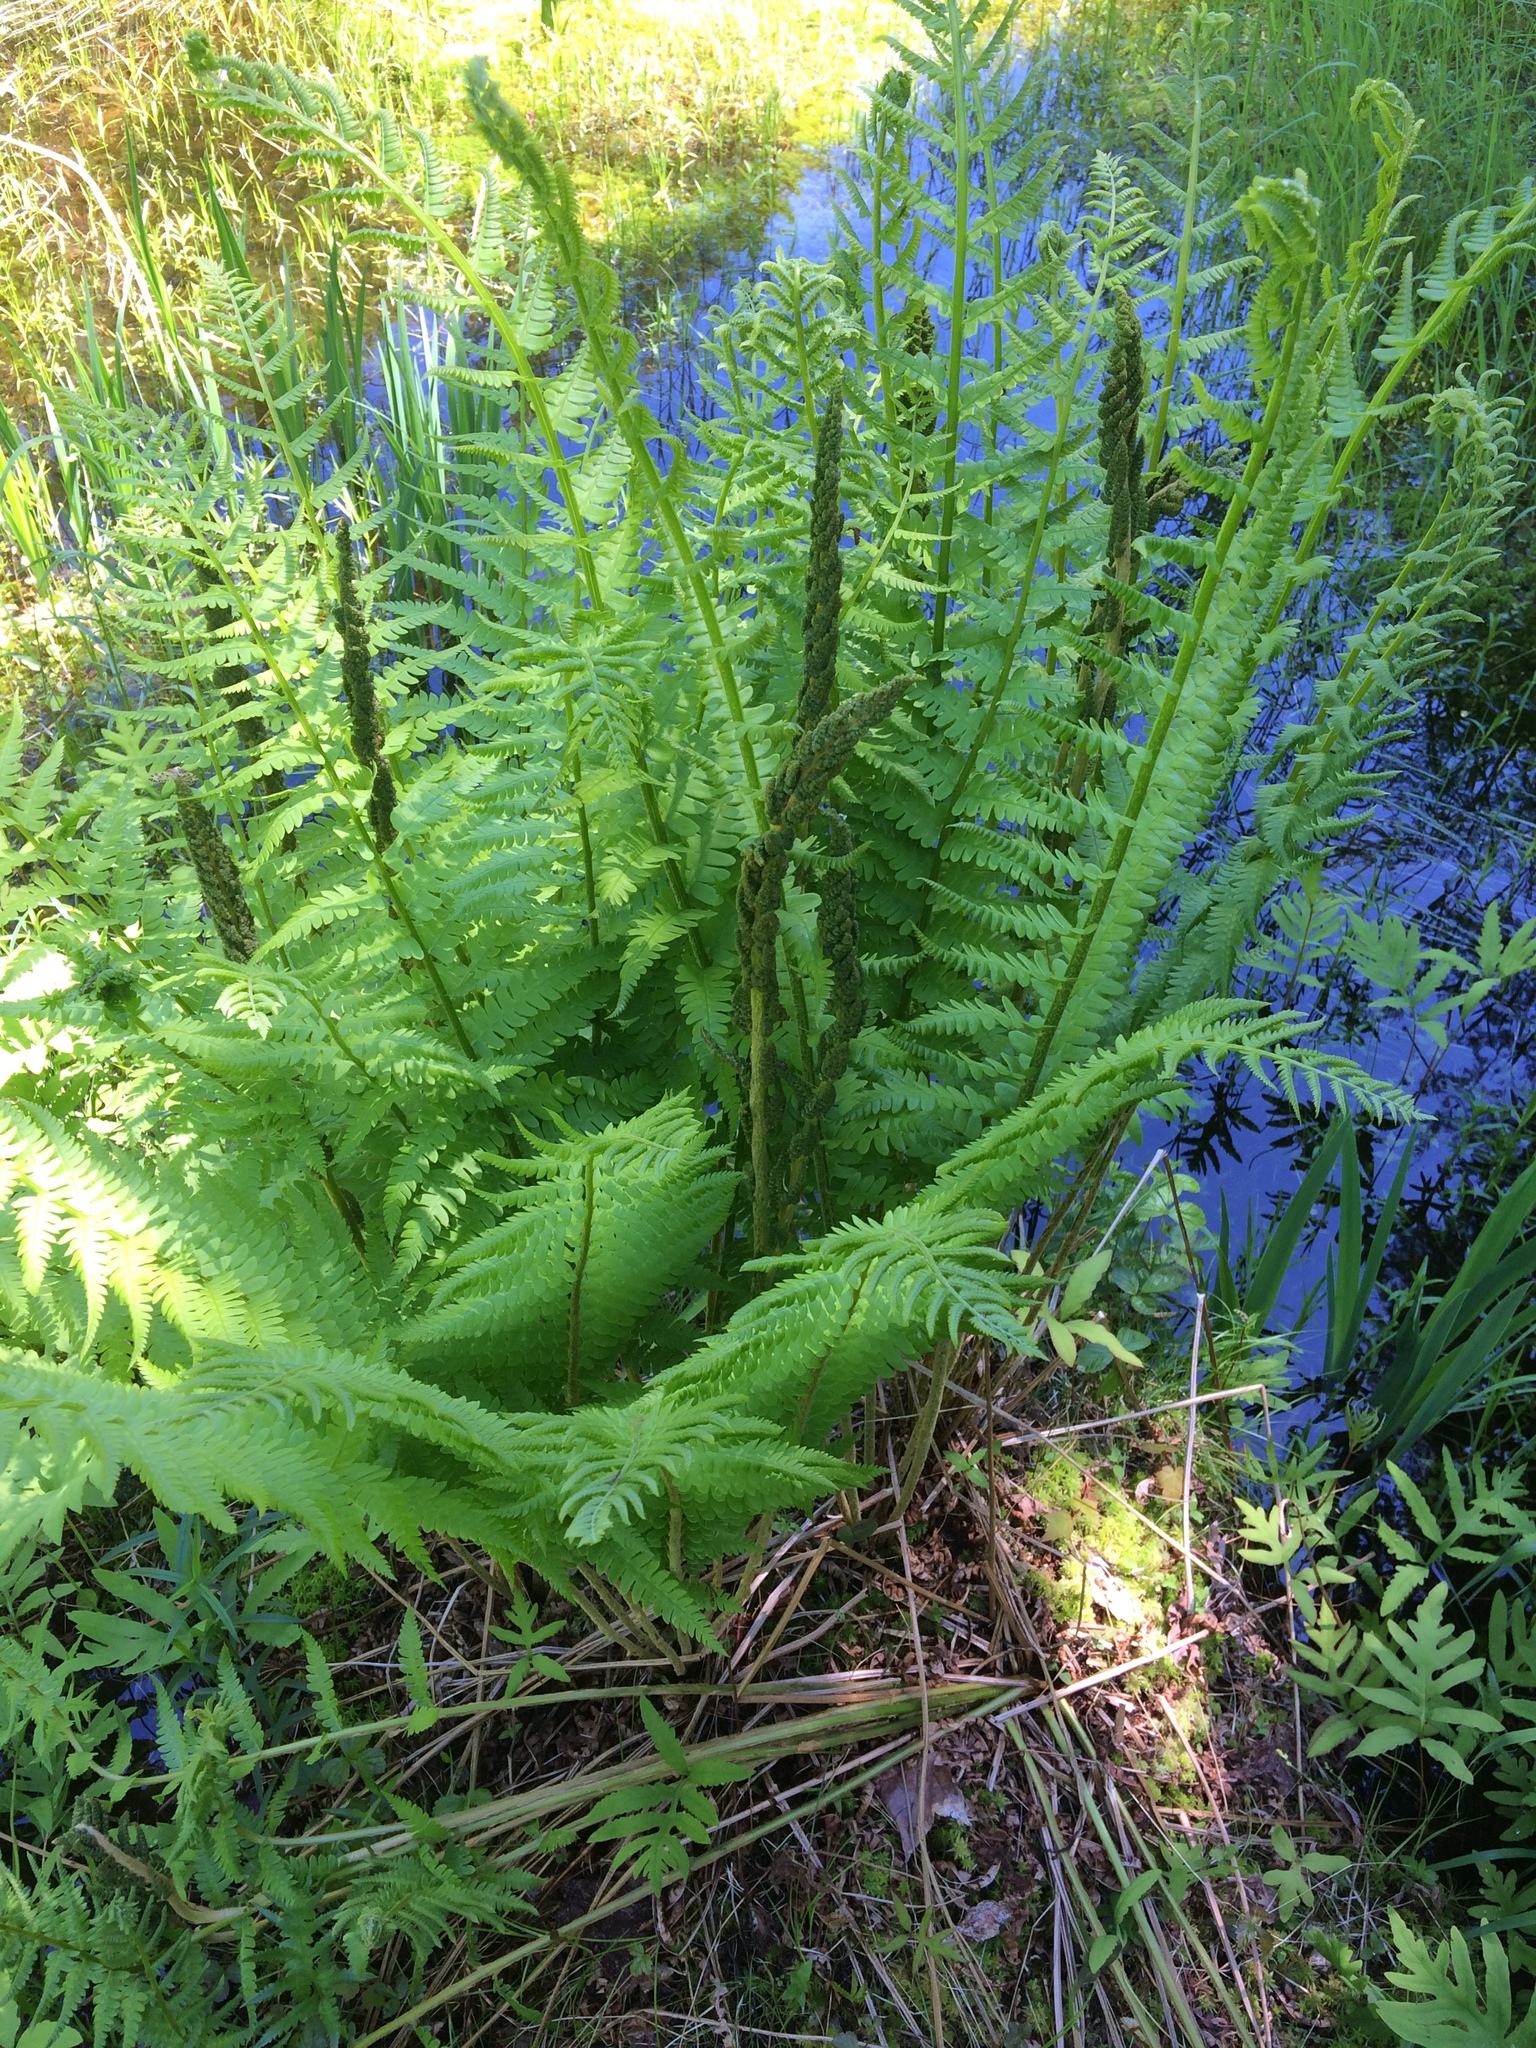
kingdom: Plantae
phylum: Tracheophyta
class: Polypodiopsida
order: Osmundales
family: Osmundaceae
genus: Osmundastrum
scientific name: Osmundastrum cinnamomeum
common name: Cinnamon fern
